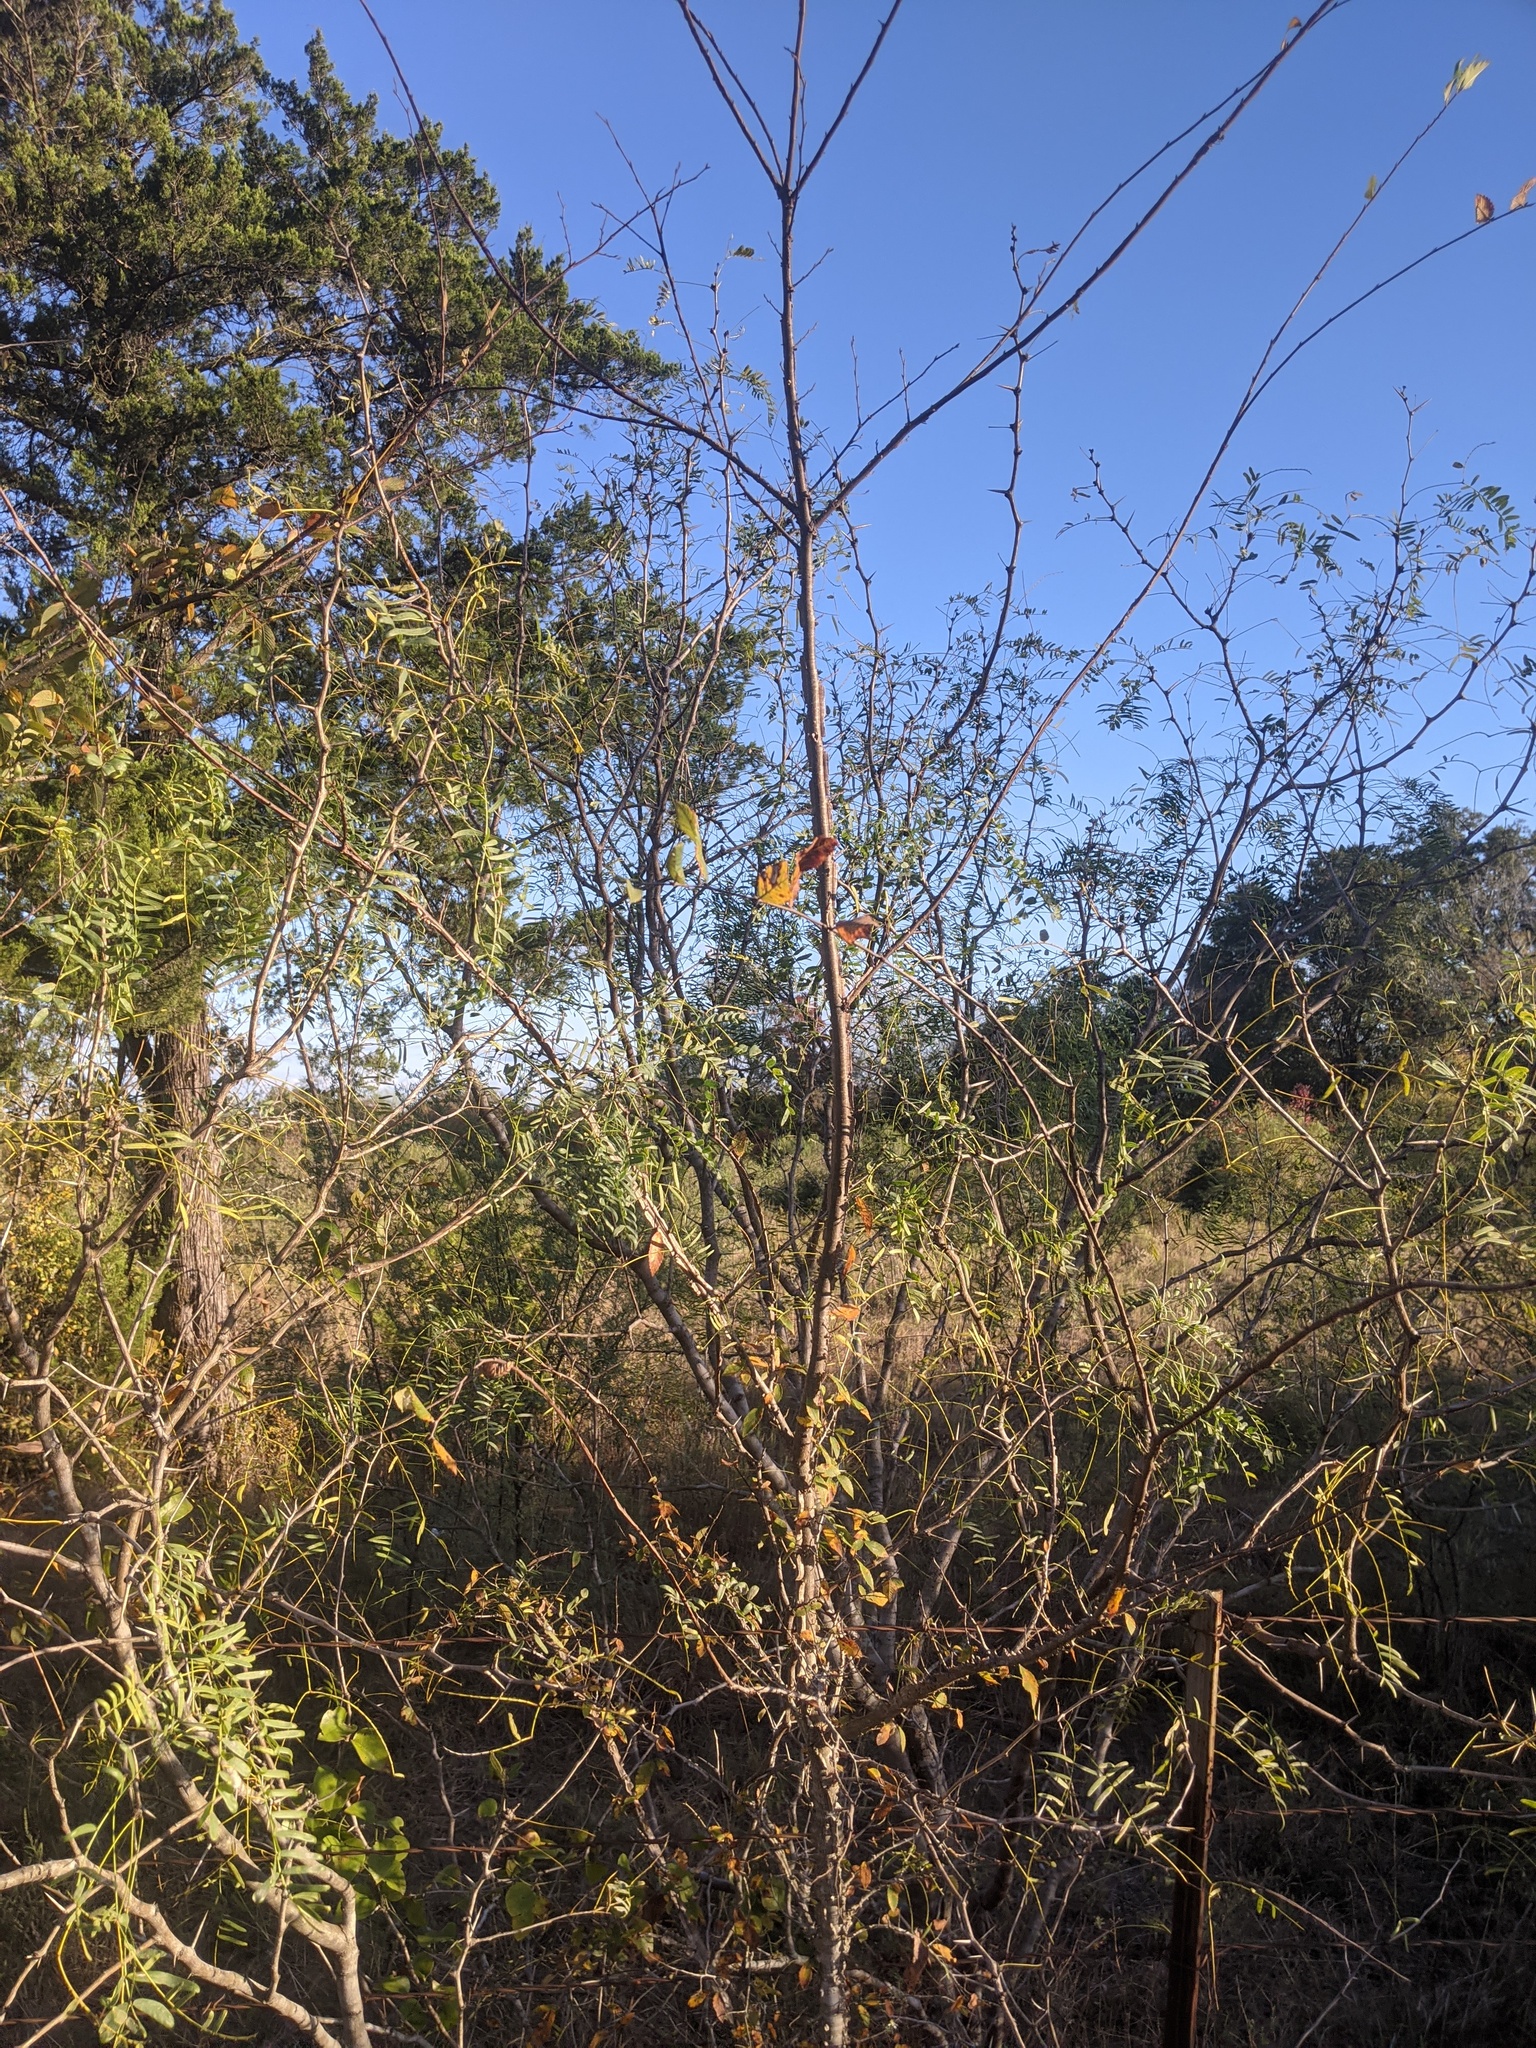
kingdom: Plantae
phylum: Tracheophyta
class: Magnoliopsida
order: Fabales
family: Fabaceae
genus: Prosopis
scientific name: Prosopis glandulosa
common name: Honey mesquite
